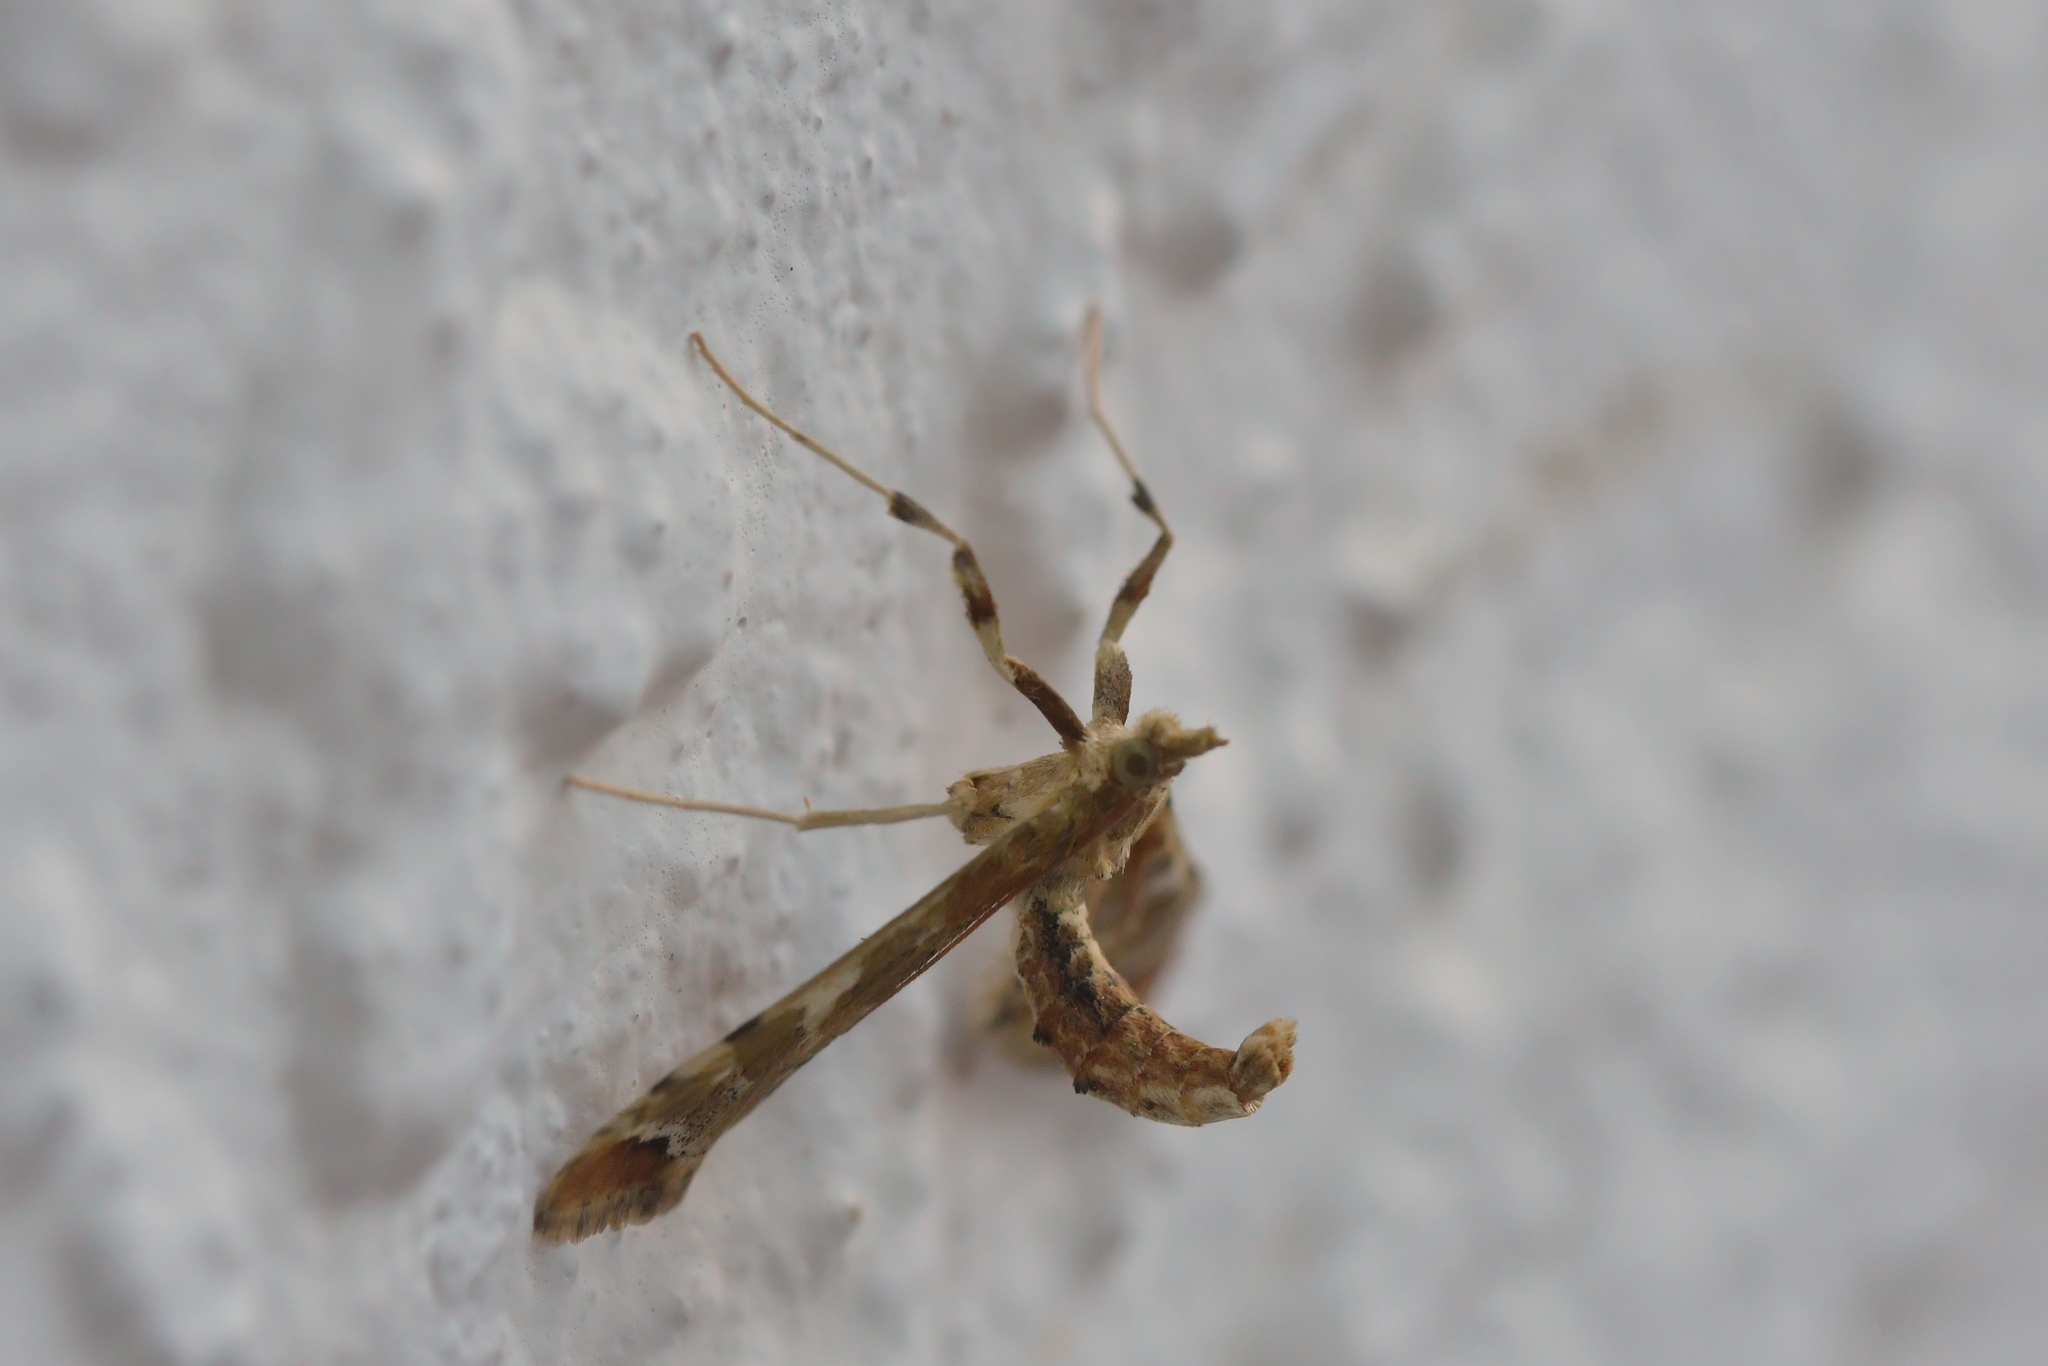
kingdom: Animalia
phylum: Arthropoda
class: Insecta
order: Lepidoptera
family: Crambidae
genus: Sceliodes
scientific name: Sceliodes cordalis
